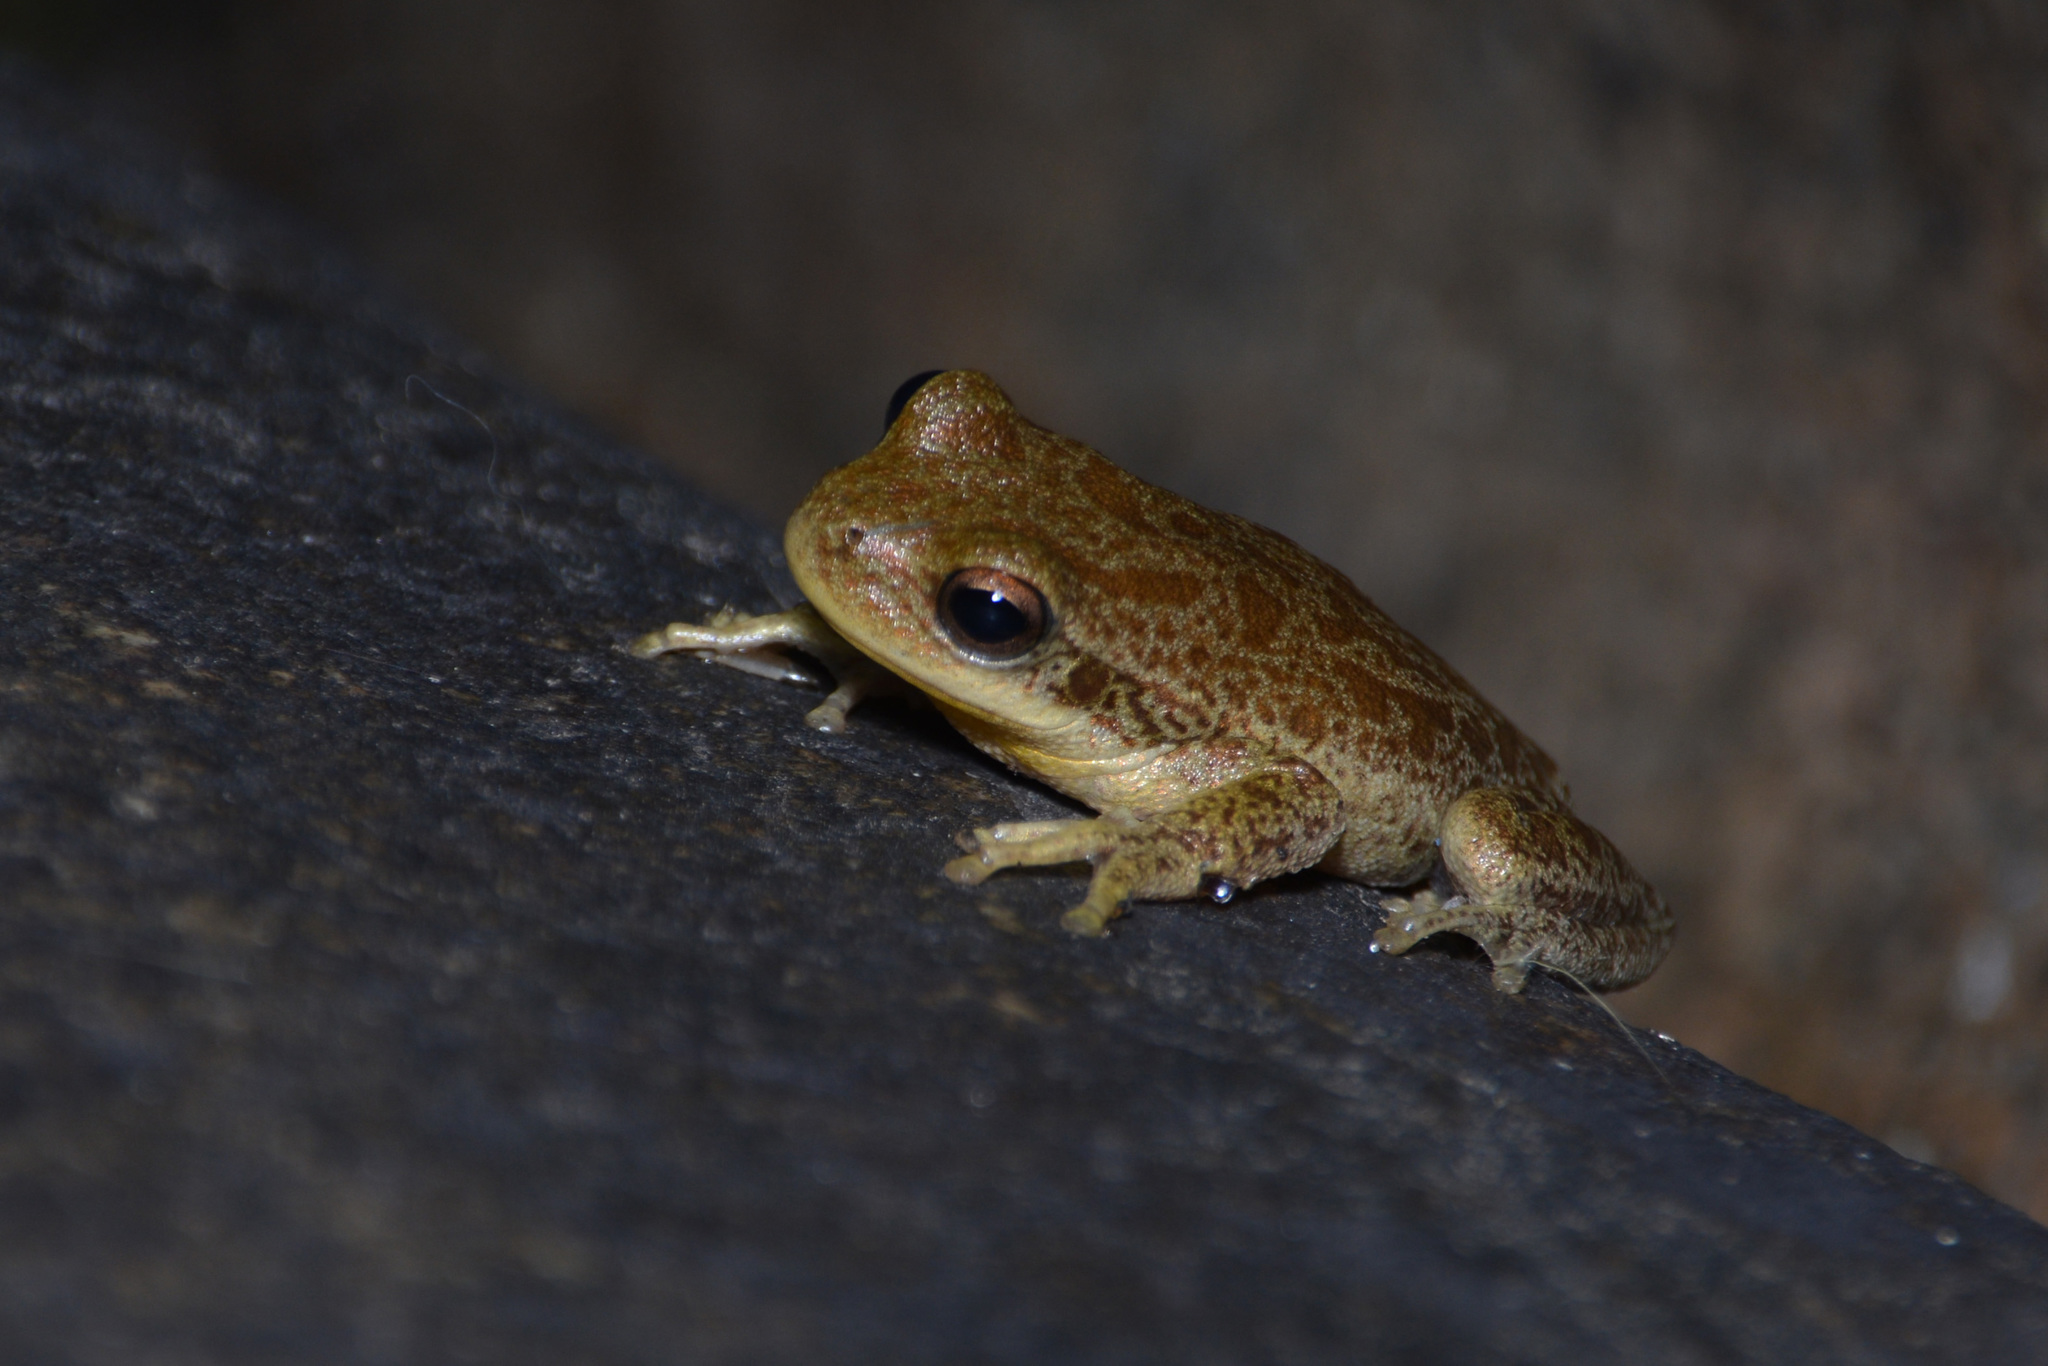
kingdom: Animalia
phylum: Chordata
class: Amphibia
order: Anura
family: Hylidae
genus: Boana
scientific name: Boana cordobae
